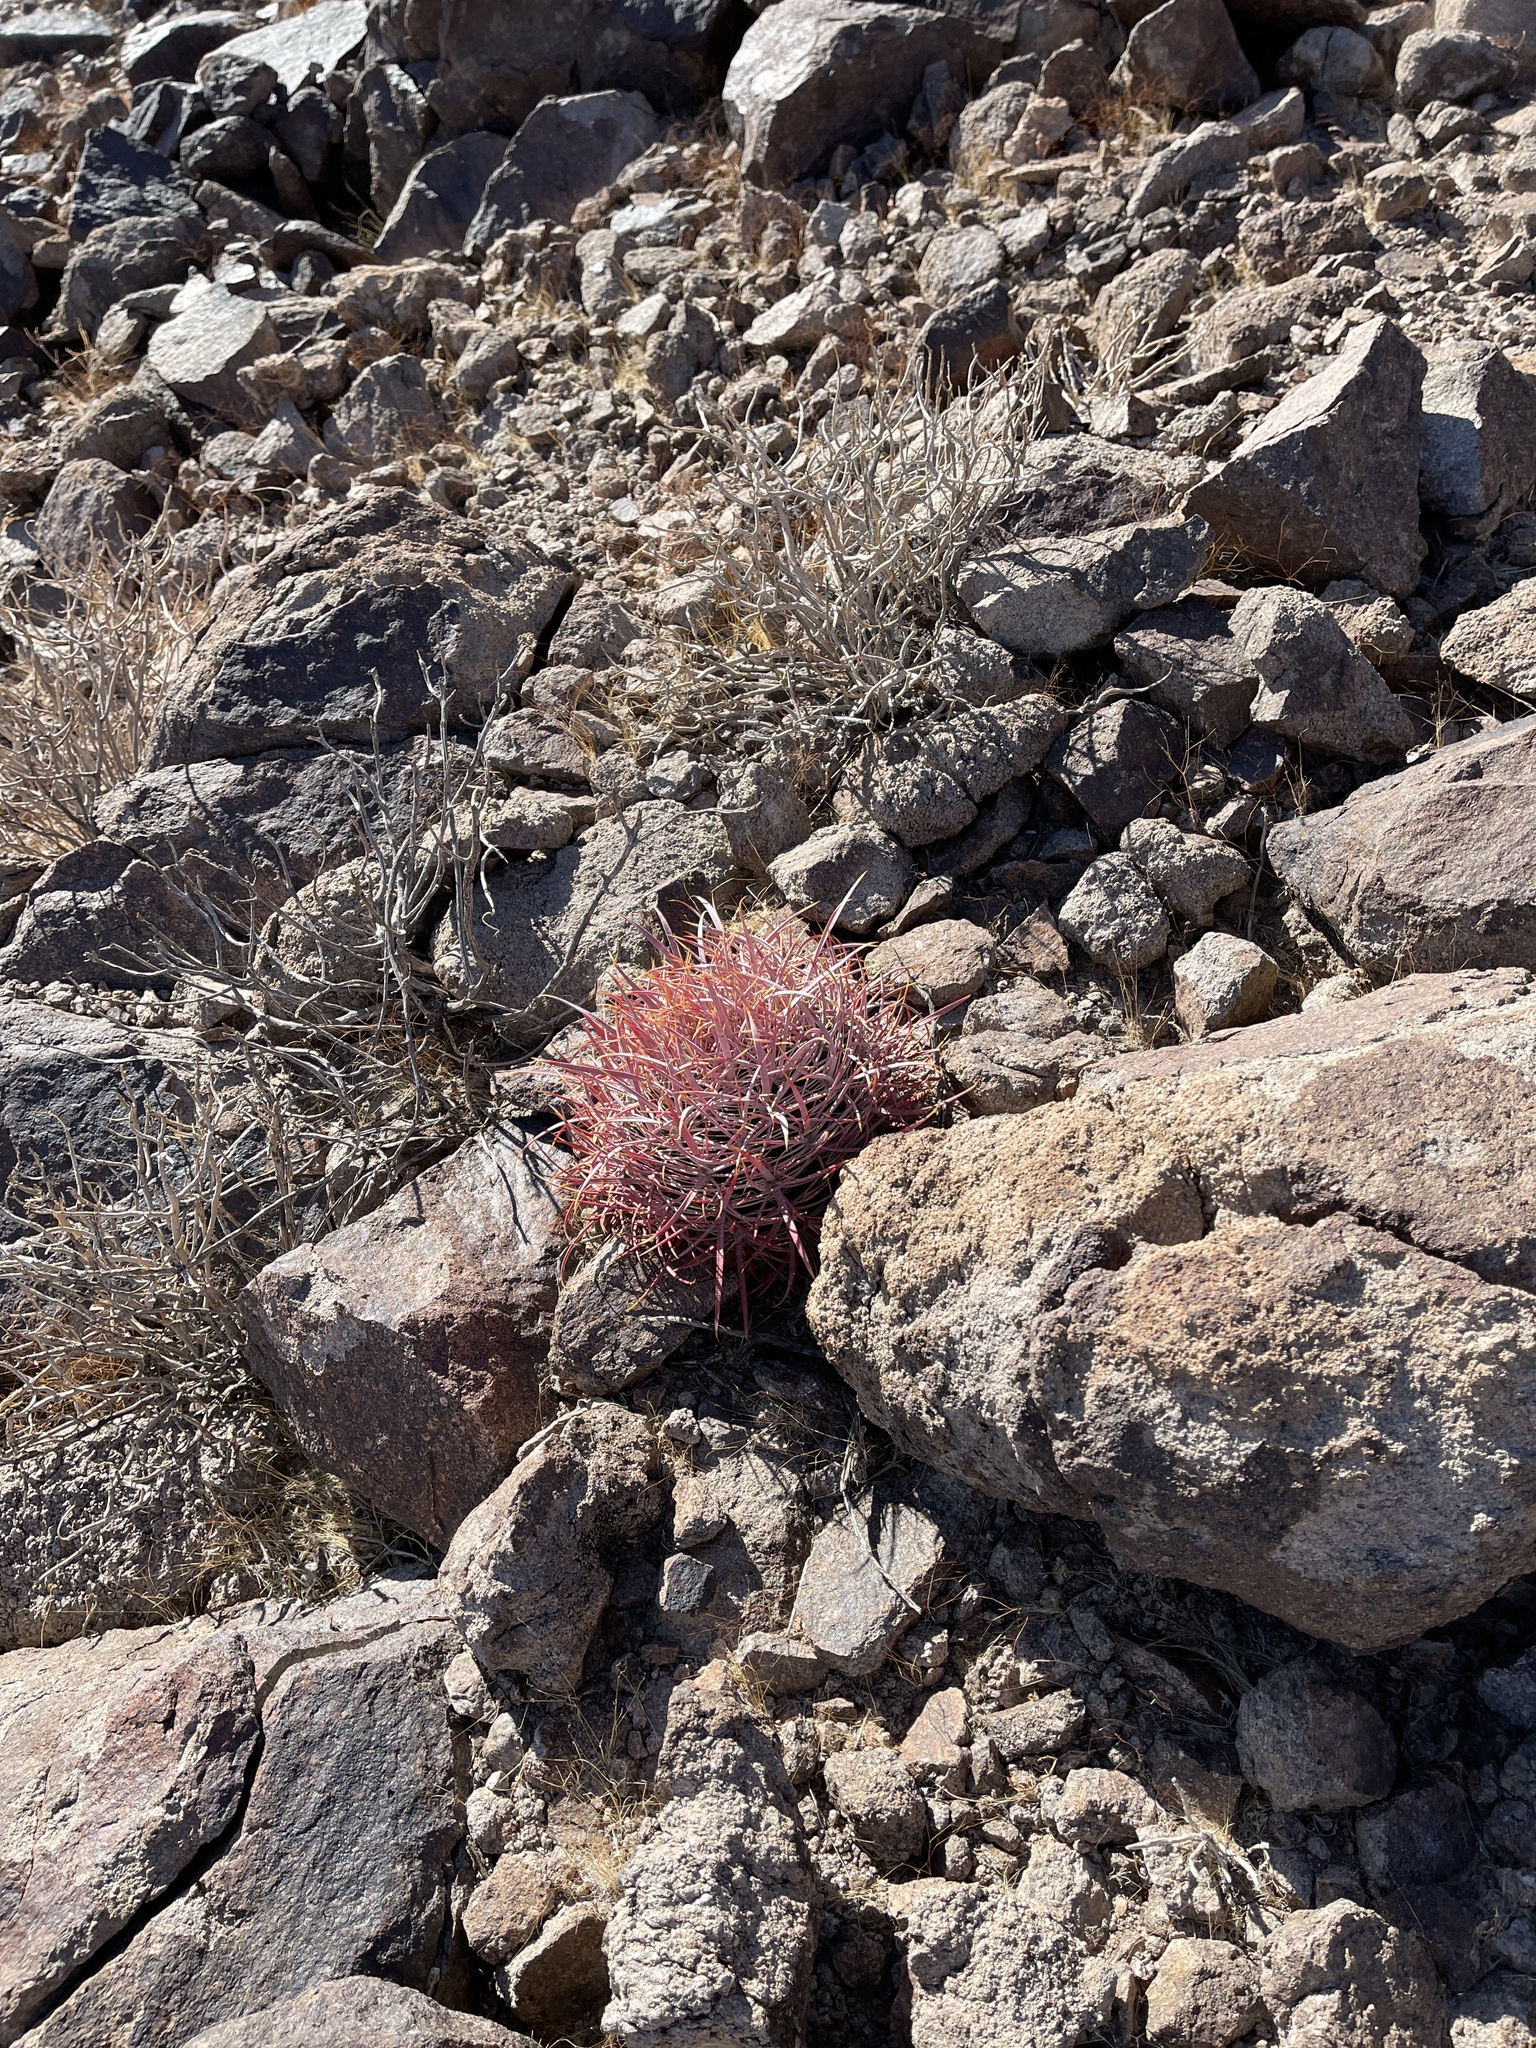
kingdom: Plantae
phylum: Tracheophyta
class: Magnoliopsida
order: Caryophyllales
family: Cactaceae
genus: Ferocactus
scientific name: Ferocactus cylindraceus
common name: California barrel cactus
